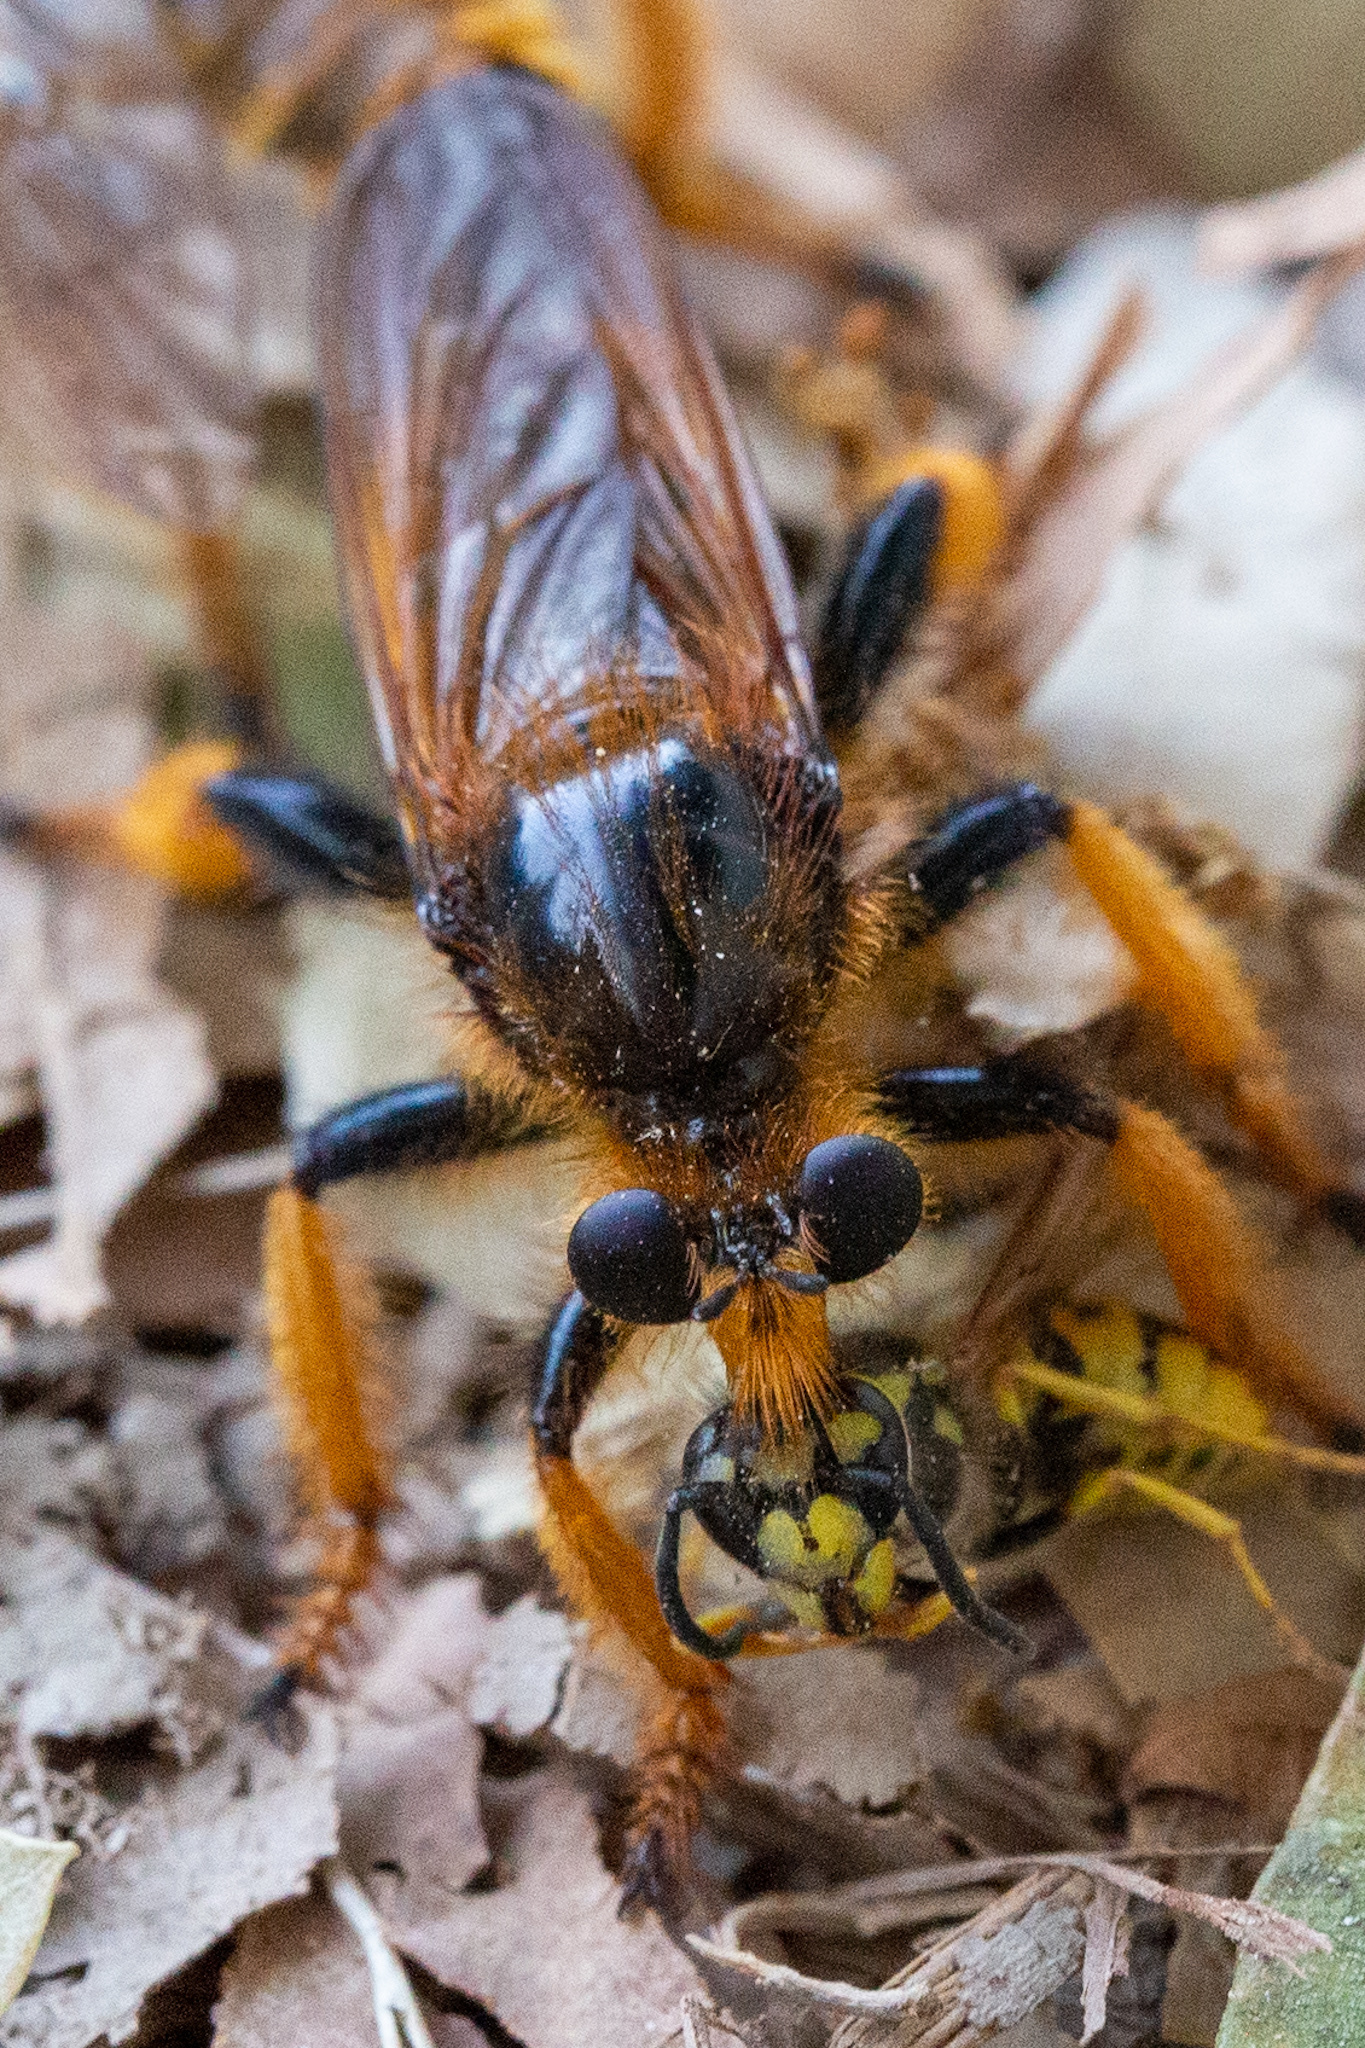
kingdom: Animalia
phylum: Arthropoda
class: Insecta
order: Diptera
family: Asilidae
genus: Pogonosoma
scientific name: Pogonosoma maroccanum
